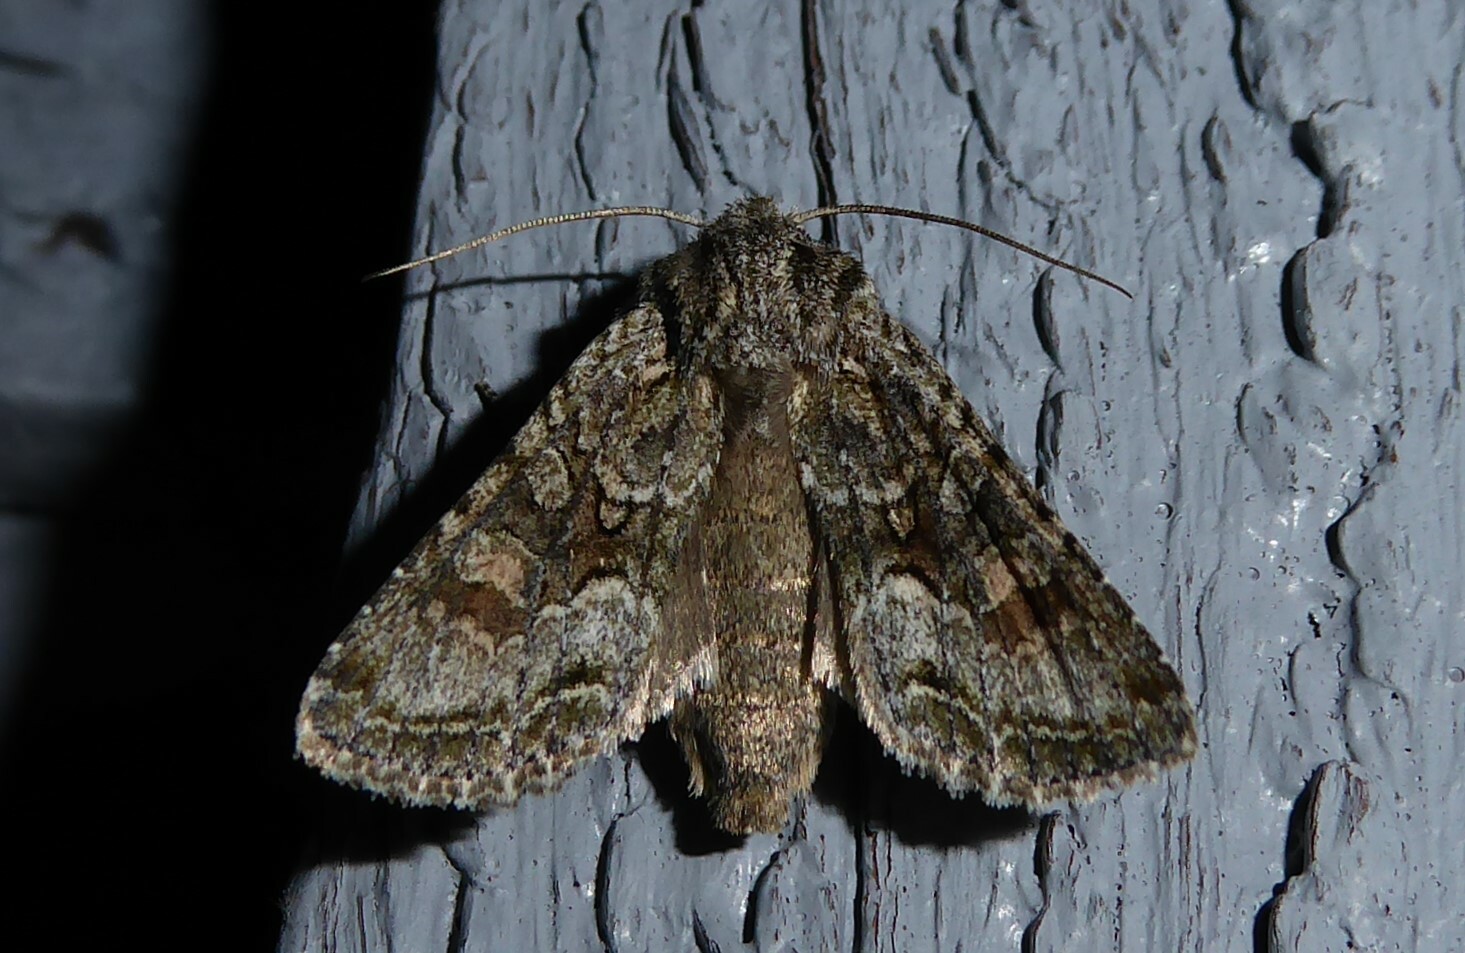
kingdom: Animalia
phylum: Arthropoda
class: Insecta
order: Lepidoptera
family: Noctuidae
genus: Ichneutica
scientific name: Ichneutica mutans
